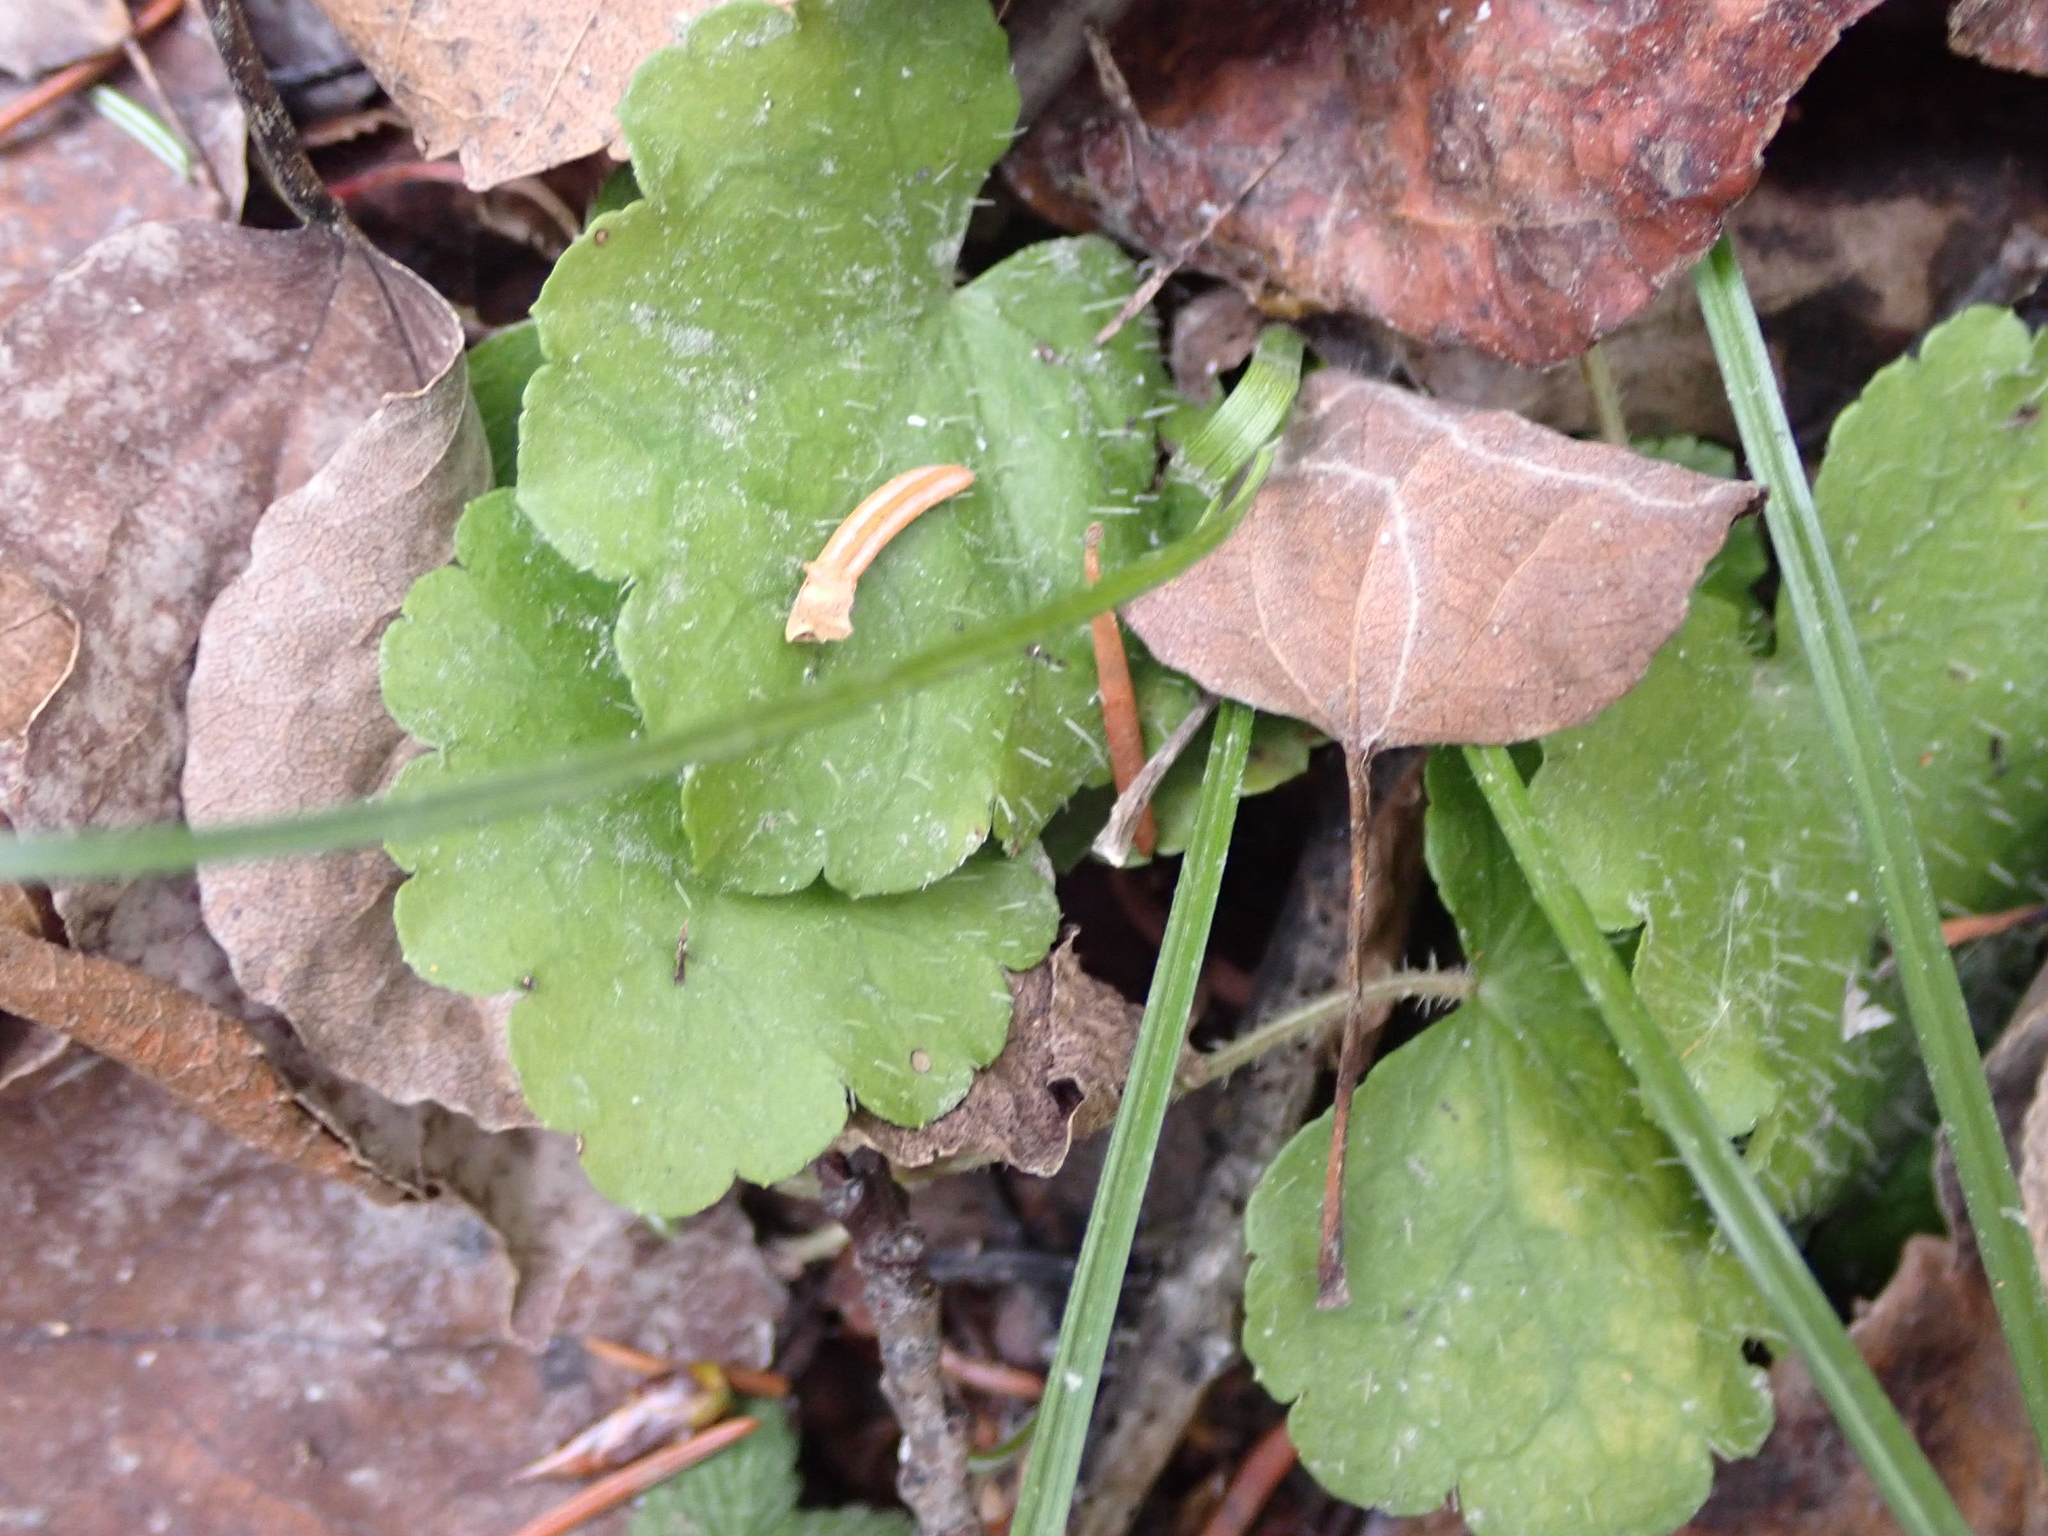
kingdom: Plantae
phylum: Tracheophyta
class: Magnoliopsida
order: Saxifragales
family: Saxifragaceae
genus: Mitella
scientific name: Mitella nuda
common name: Bare-stemmed bishop's-cap
